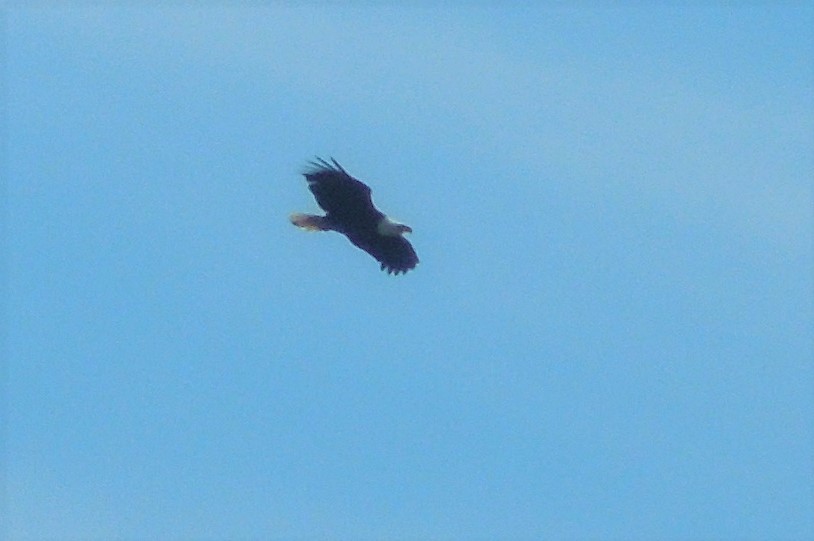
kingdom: Animalia
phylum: Chordata
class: Aves
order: Accipitriformes
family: Accipitridae
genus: Haliaeetus
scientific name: Haliaeetus leucocephalus
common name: Bald eagle
